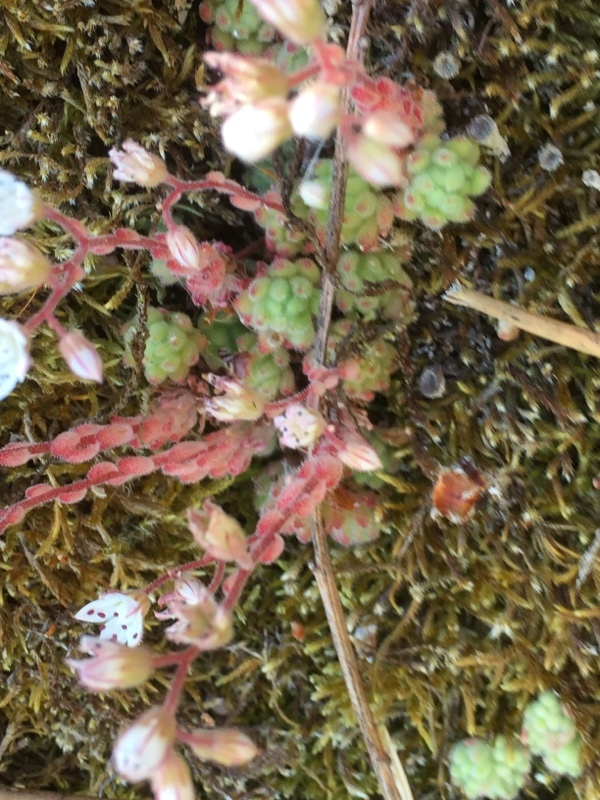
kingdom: Plantae
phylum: Tracheophyta
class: Magnoliopsida
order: Saxifragales
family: Crassulaceae
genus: Sedum
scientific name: Sedum hirsutum
